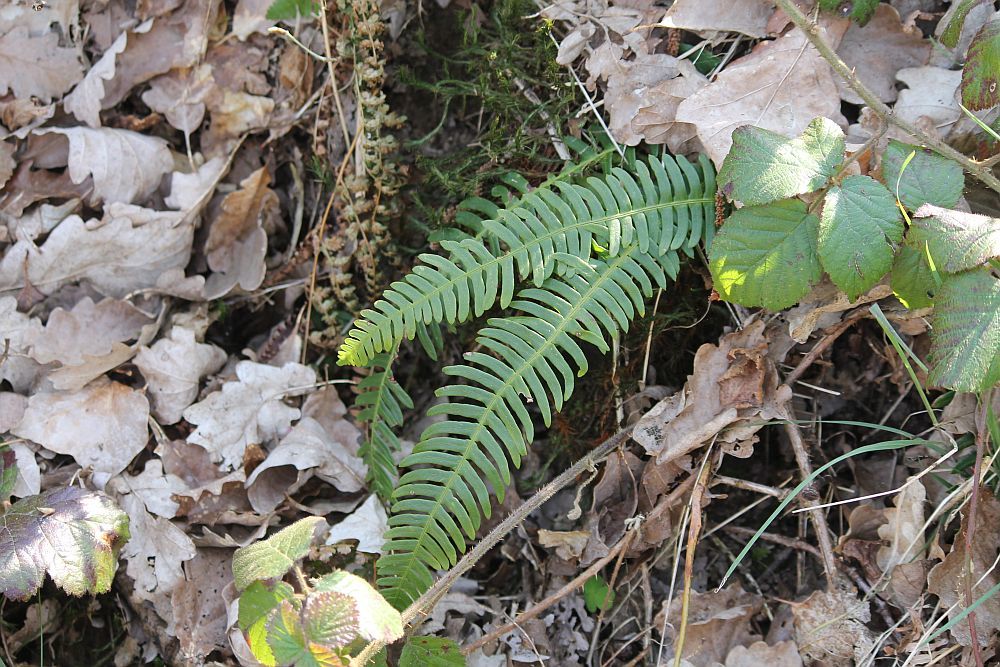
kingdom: Plantae
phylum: Tracheophyta
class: Polypodiopsida
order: Polypodiales
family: Blechnaceae
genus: Struthiopteris
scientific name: Struthiopteris spicant
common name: Deer fern
